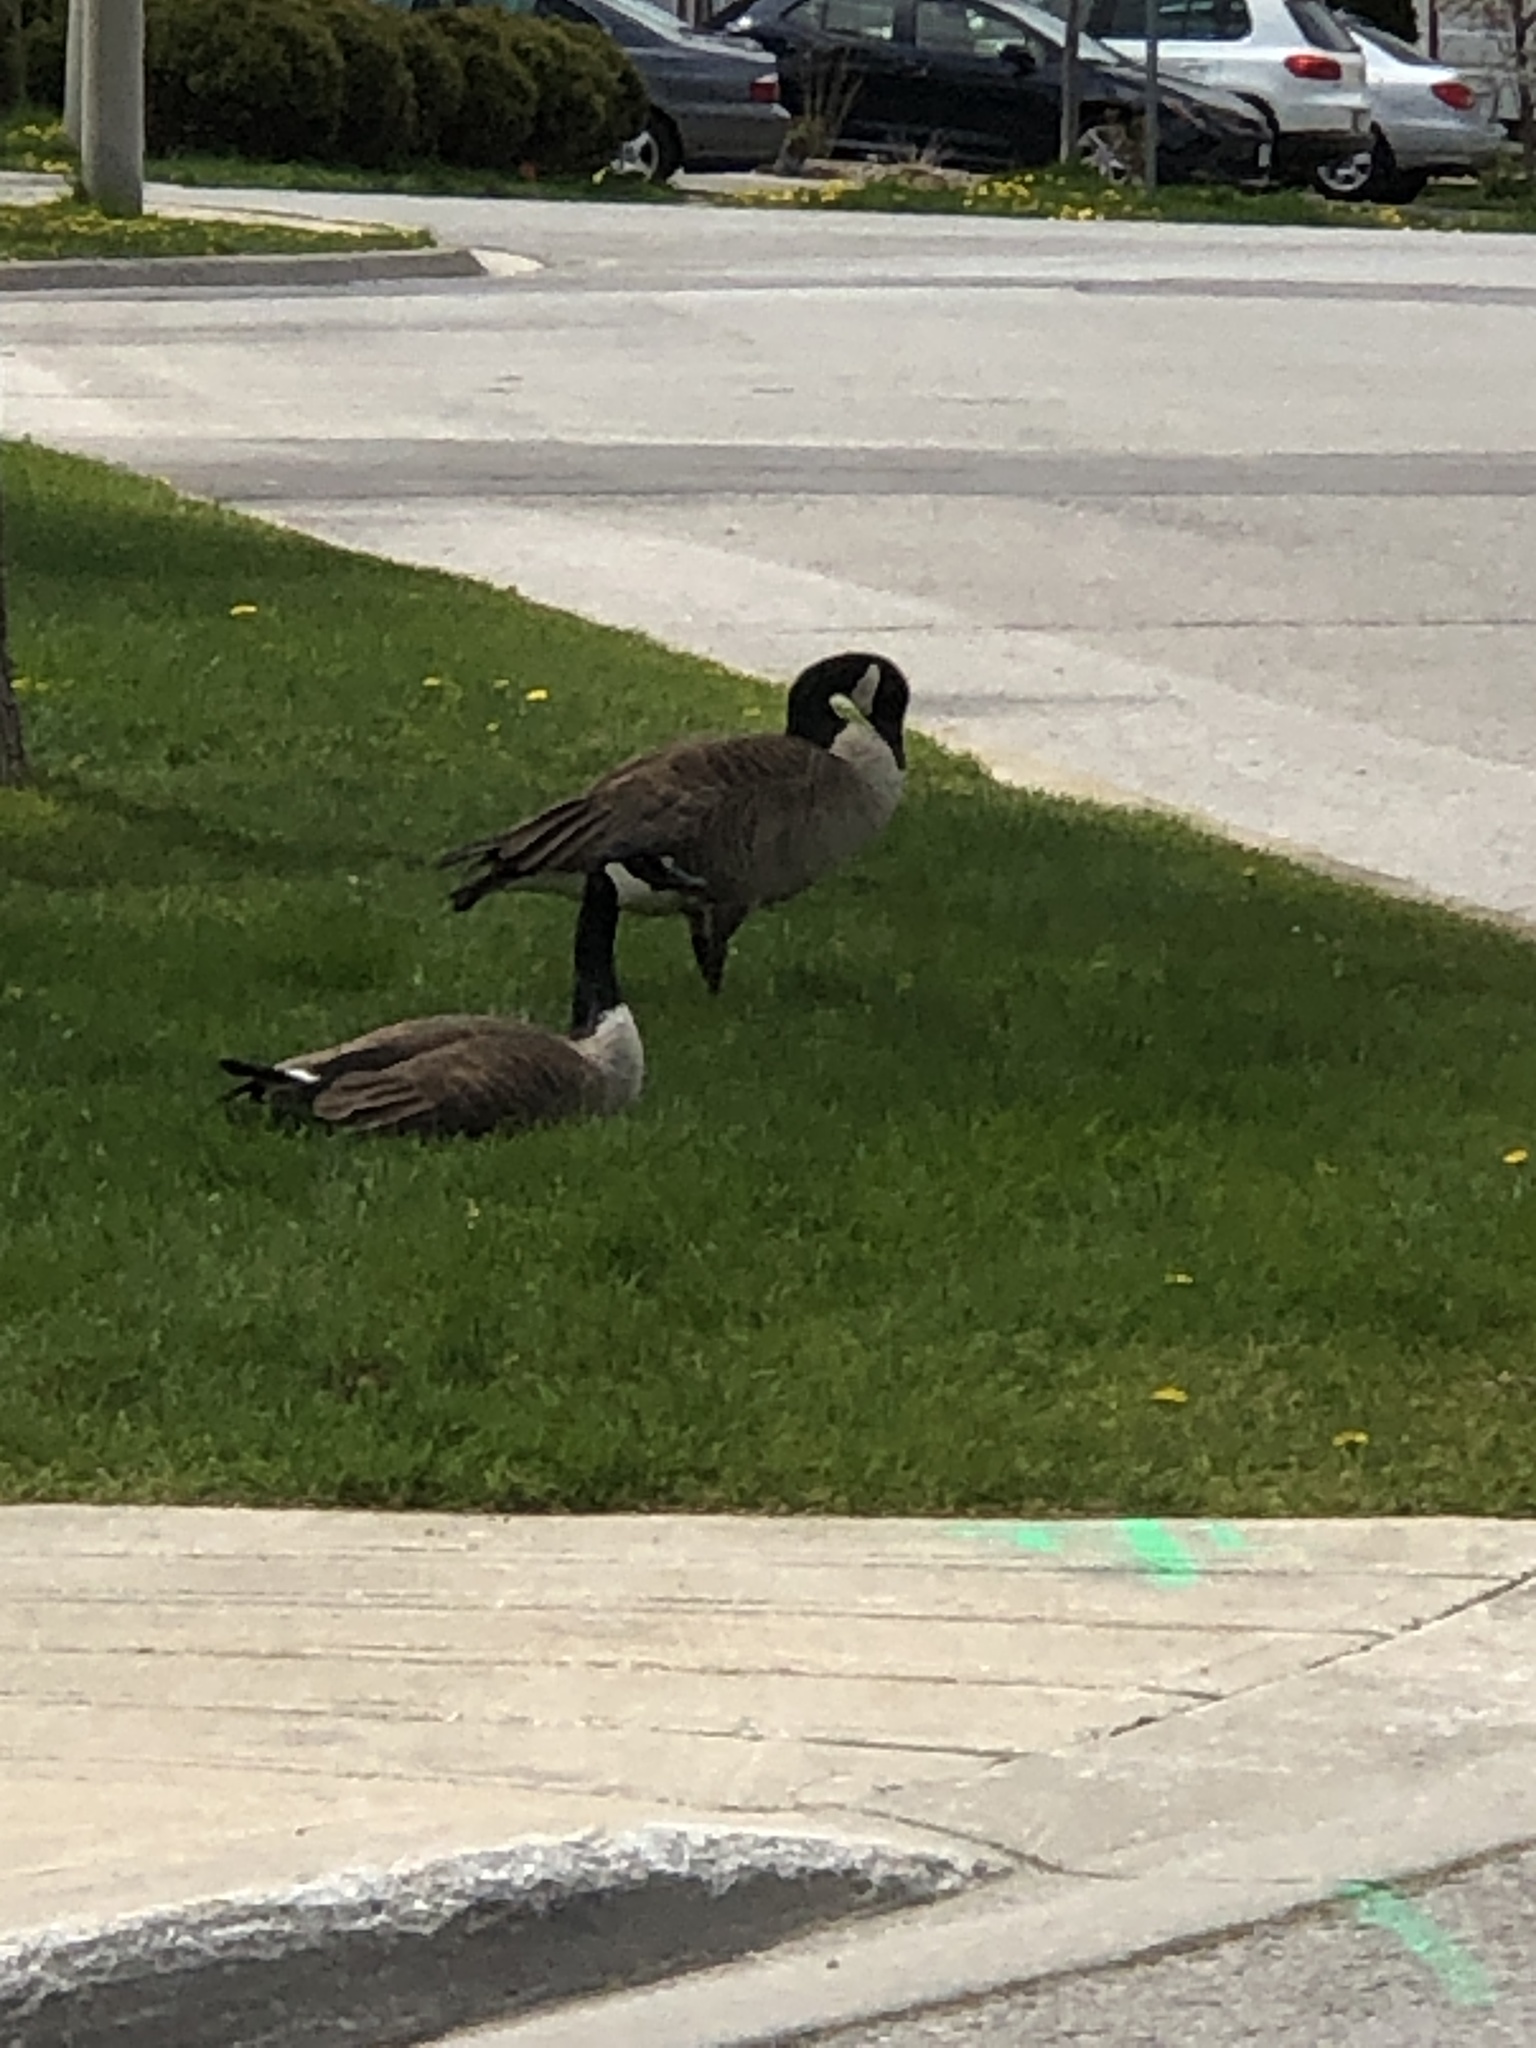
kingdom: Animalia
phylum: Chordata
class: Aves
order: Anseriformes
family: Anatidae
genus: Branta
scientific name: Branta canadensis
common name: Canada goose
